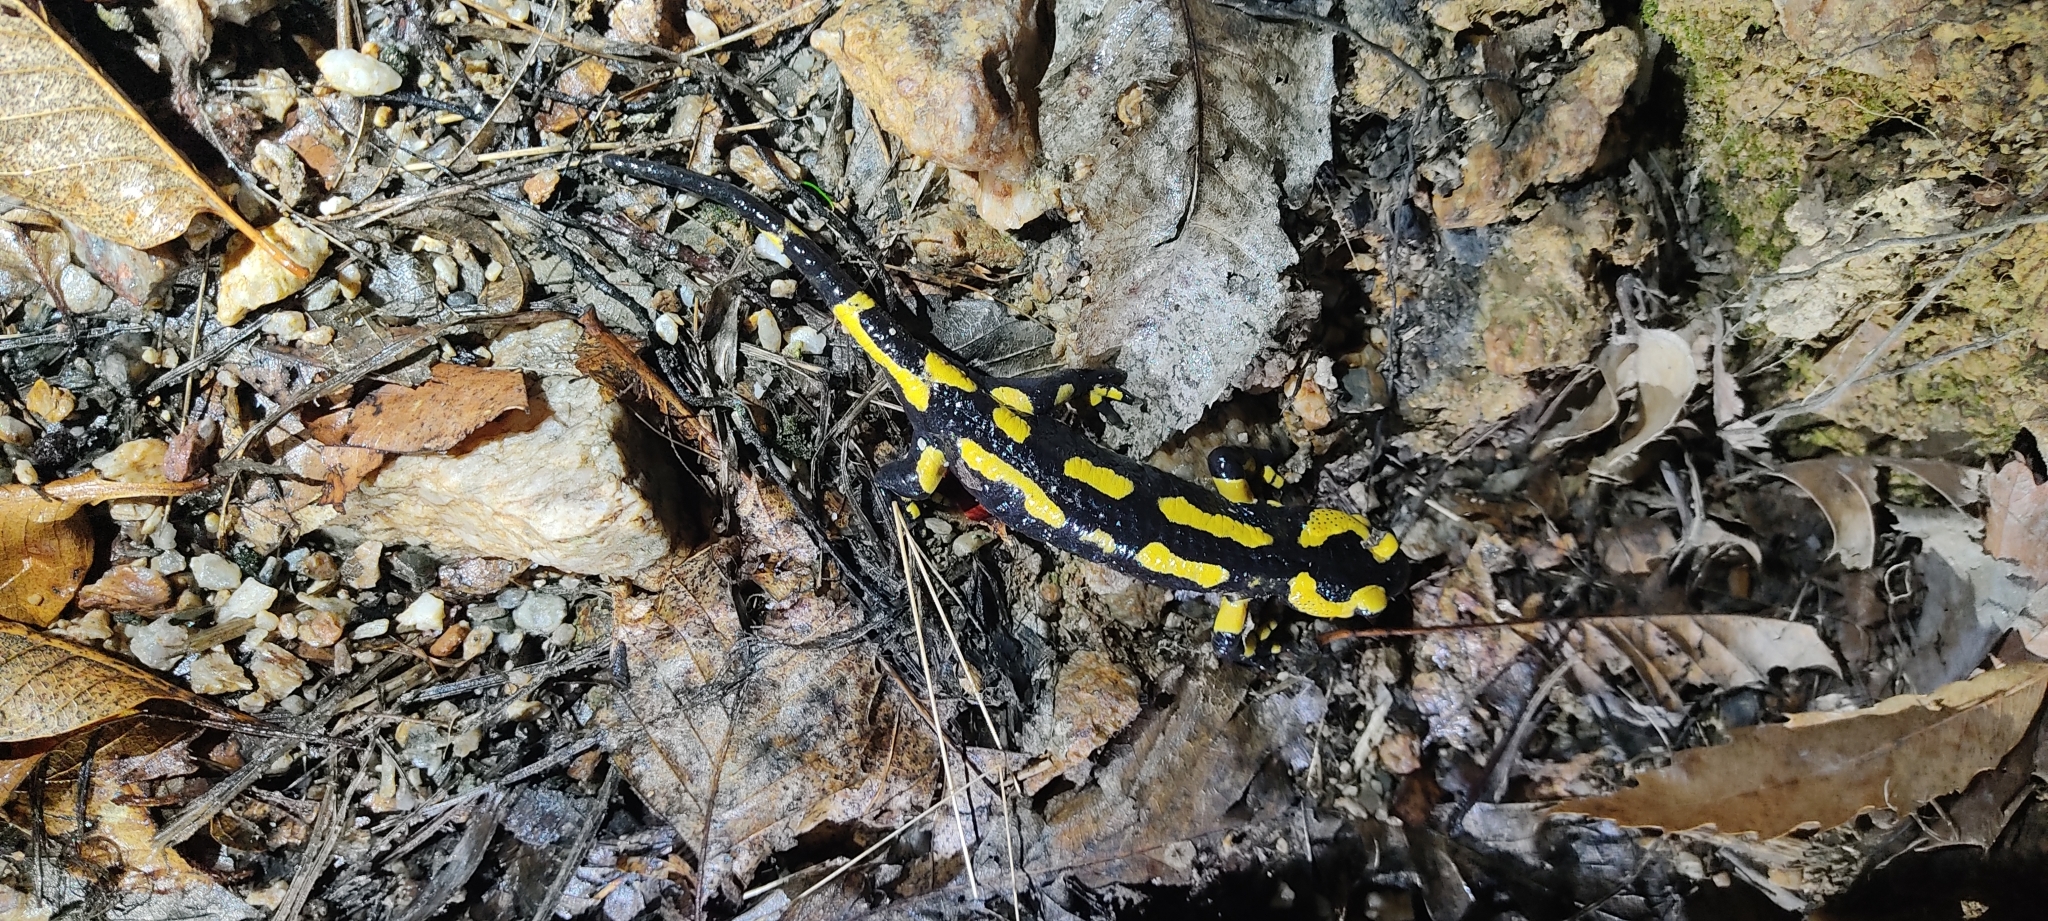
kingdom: Animalia
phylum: Chordata
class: Amphibia
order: Caudata
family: Salamandridae
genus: Salamandra
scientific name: Salamandra salamandra
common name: Fire salamander
